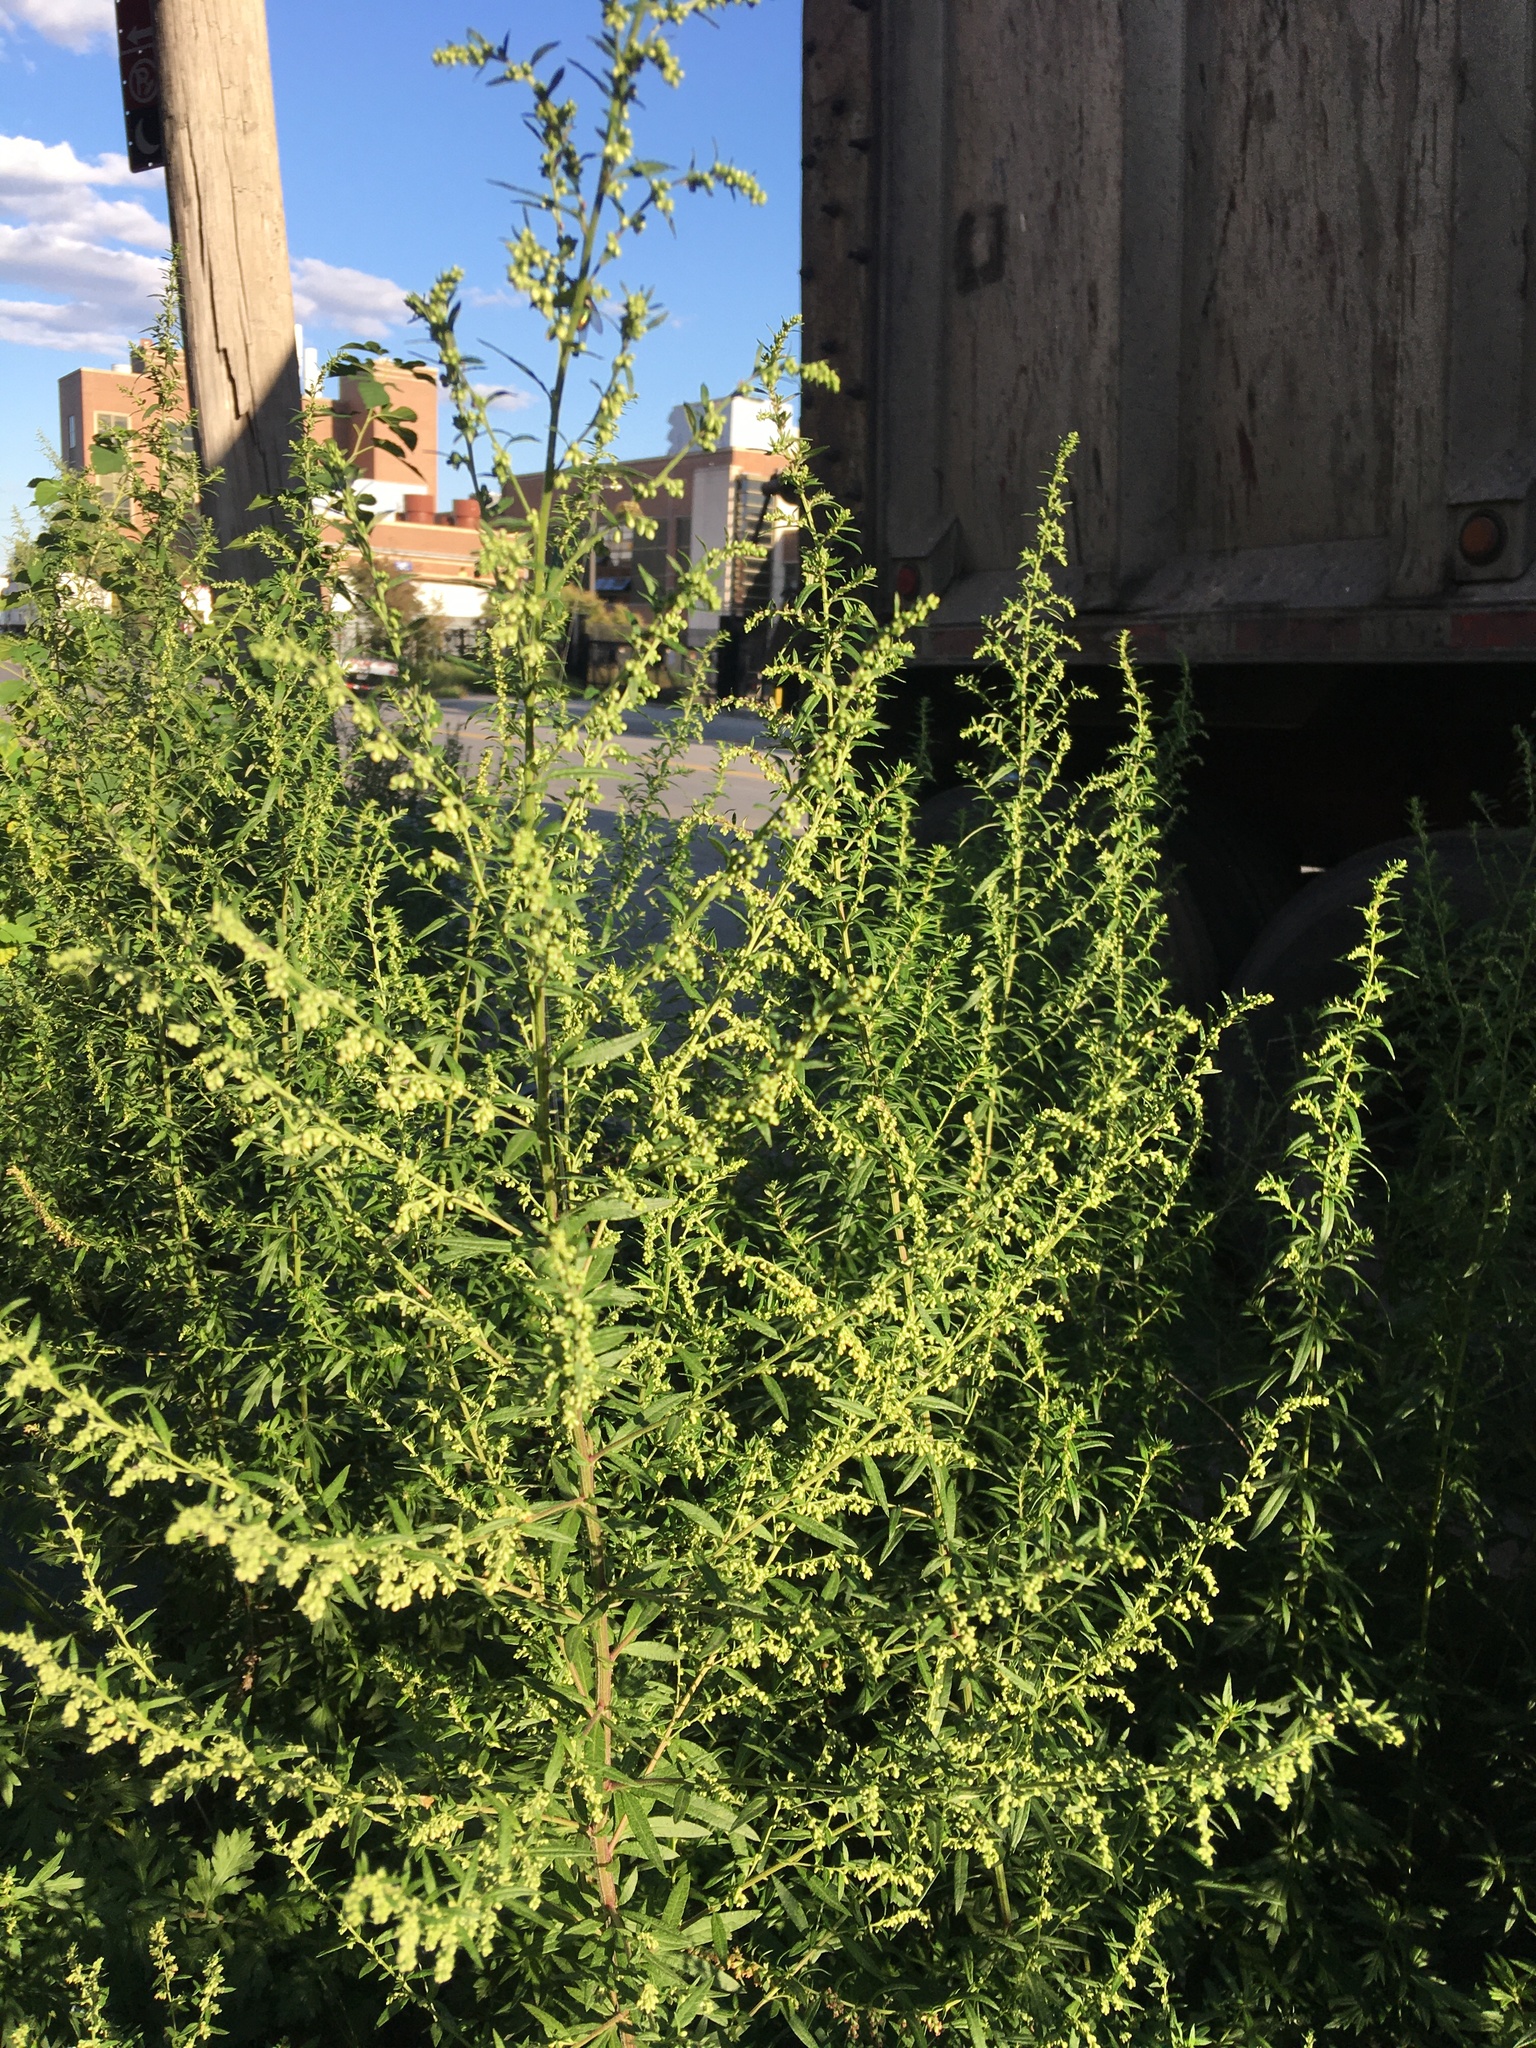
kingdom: Plantae
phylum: Tracheophyta
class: Magnoliopsida
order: Asterales
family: Asteraceae
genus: Artemisia
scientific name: Artemisia vulgaris
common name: Mugwort
